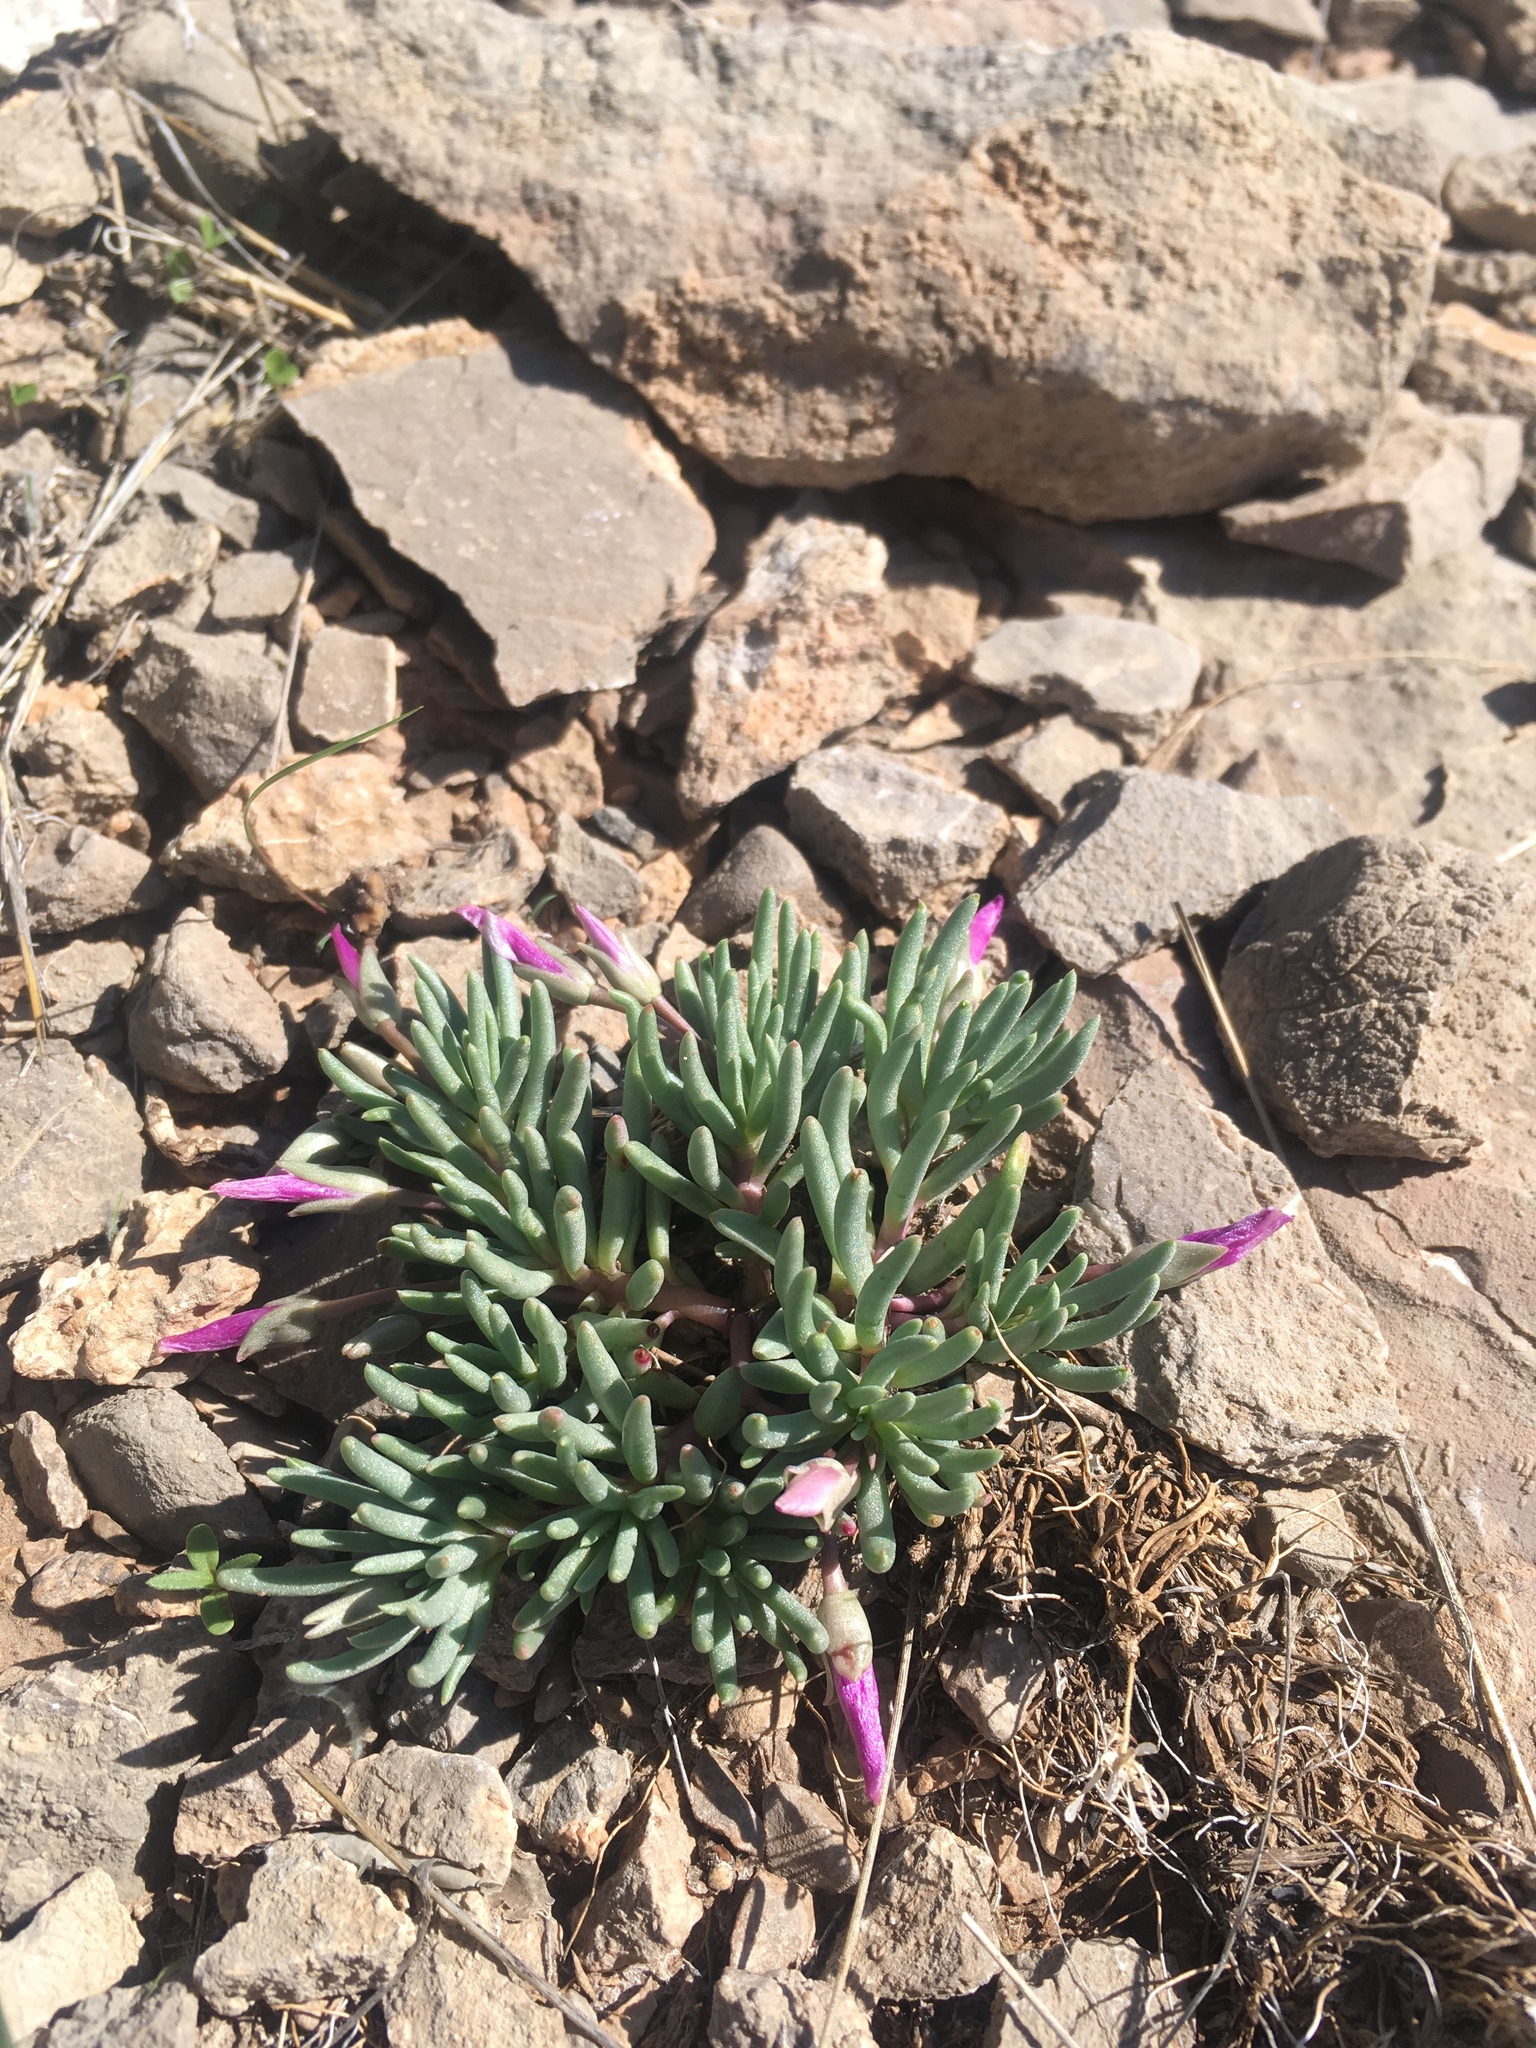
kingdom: Plantae
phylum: Tracheophyta
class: Magnoliopsida
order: Caryophyllales
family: Montiaceae
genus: Phemeranthus
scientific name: Phemeranthus brevicaulis
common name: Dwarf fameflower
